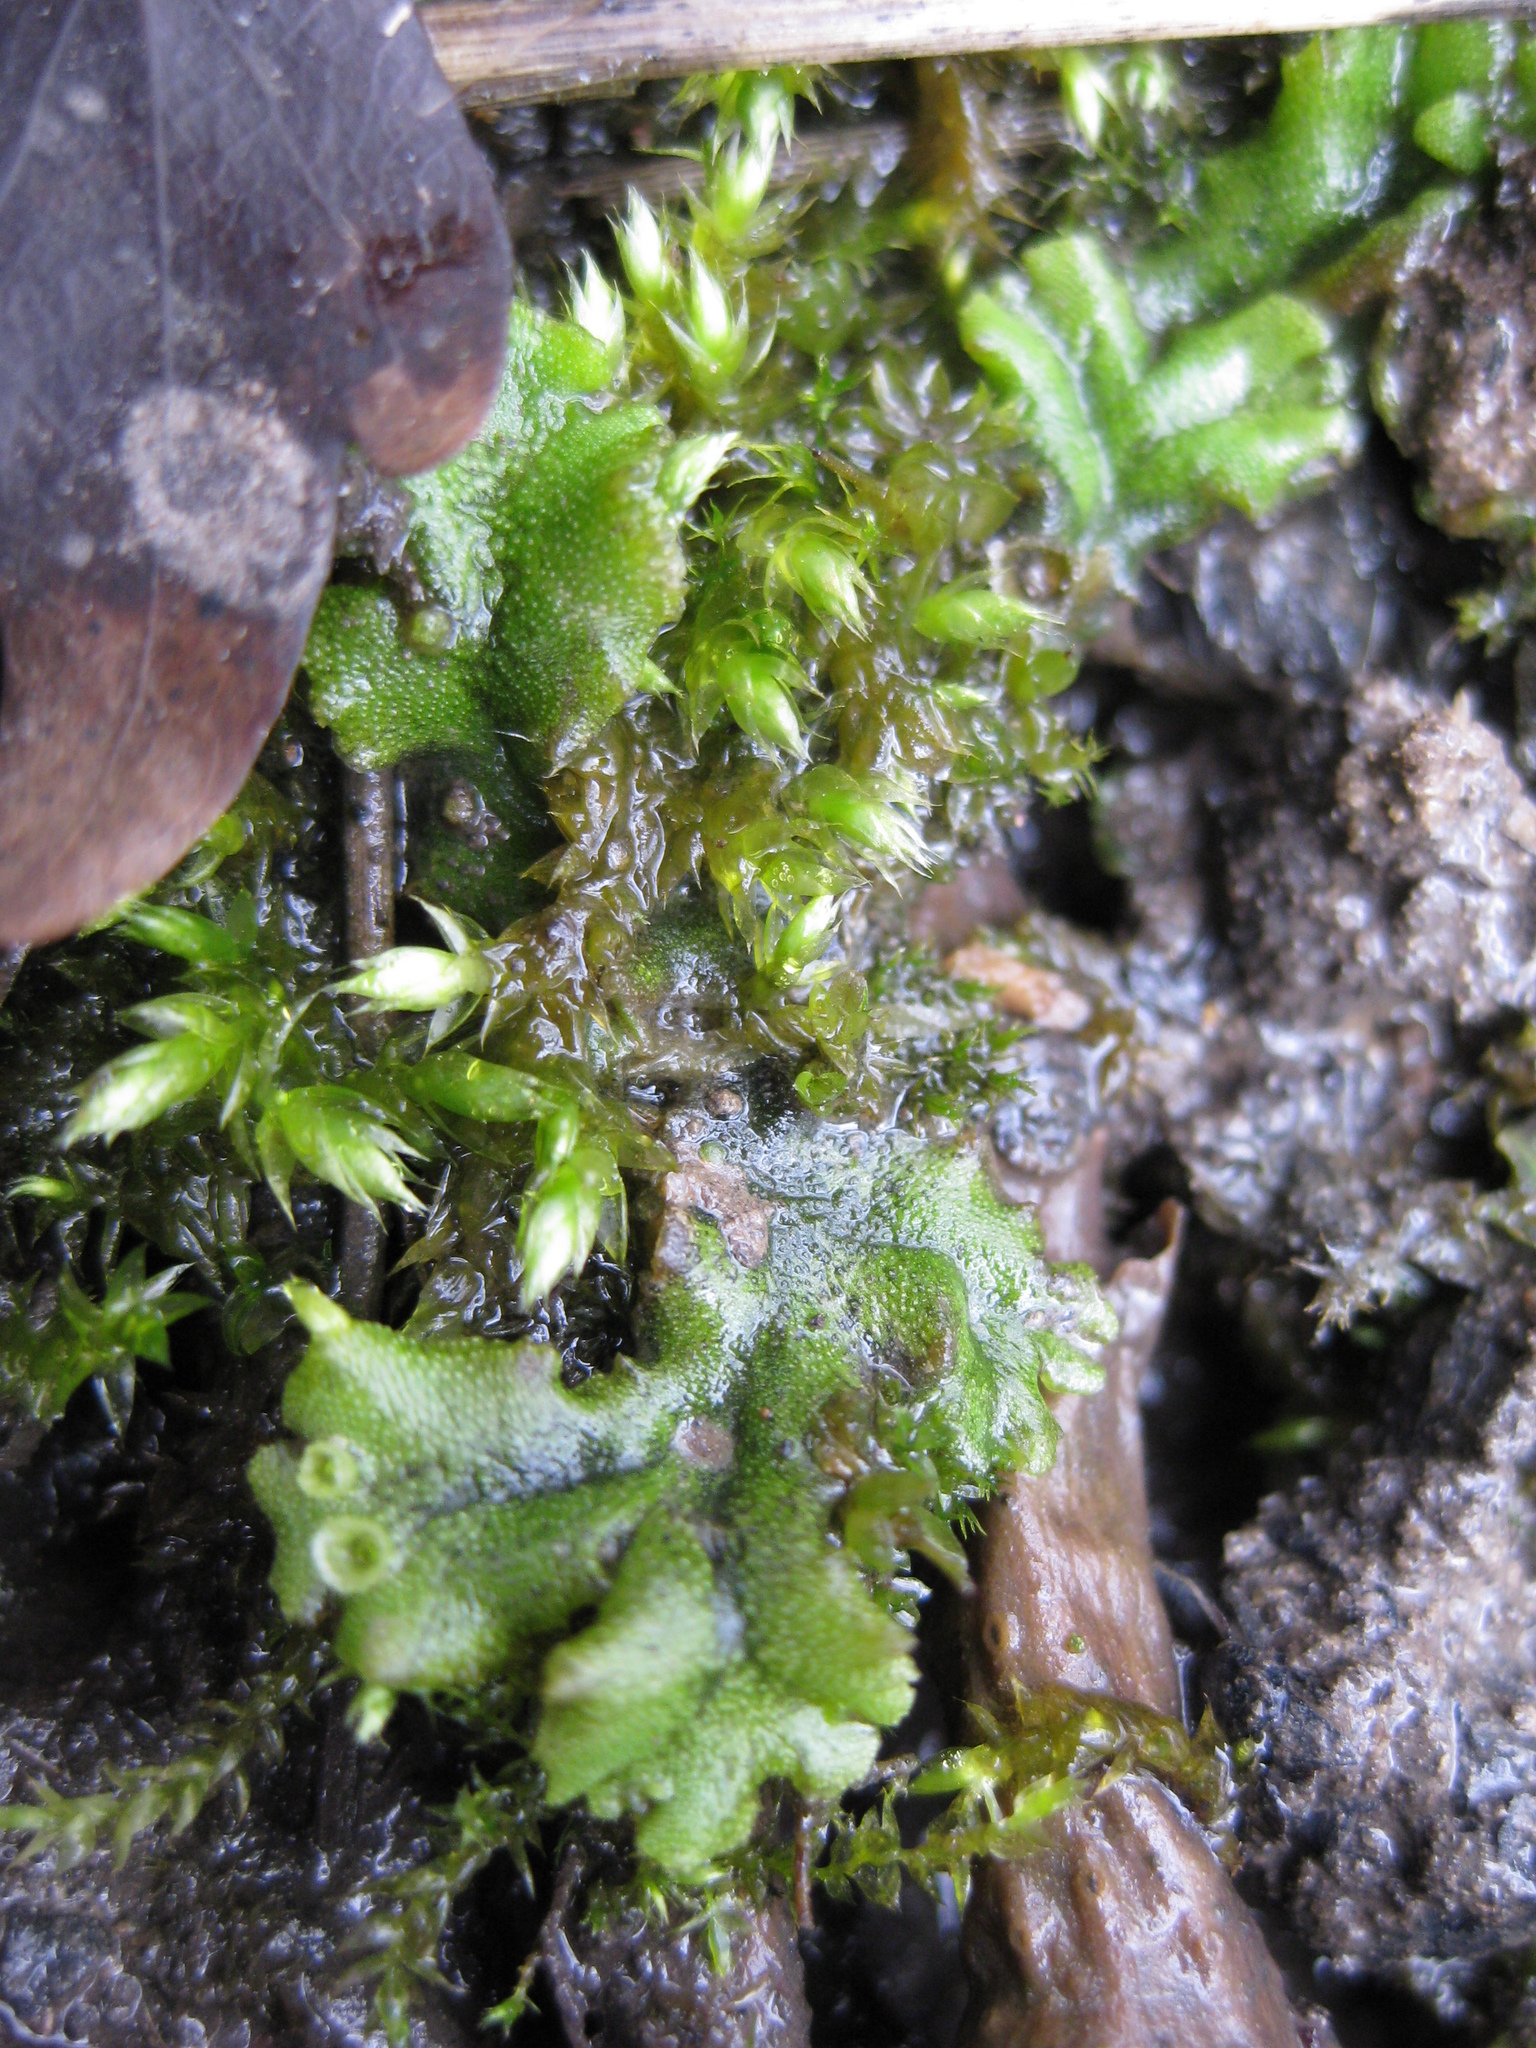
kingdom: Plantae
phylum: Marchantiophyta
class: Marchantiopsida
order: Marchantiales
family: Marchantiaceae
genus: Marchantia
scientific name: Marchantia polymorpha
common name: Common liverwort
